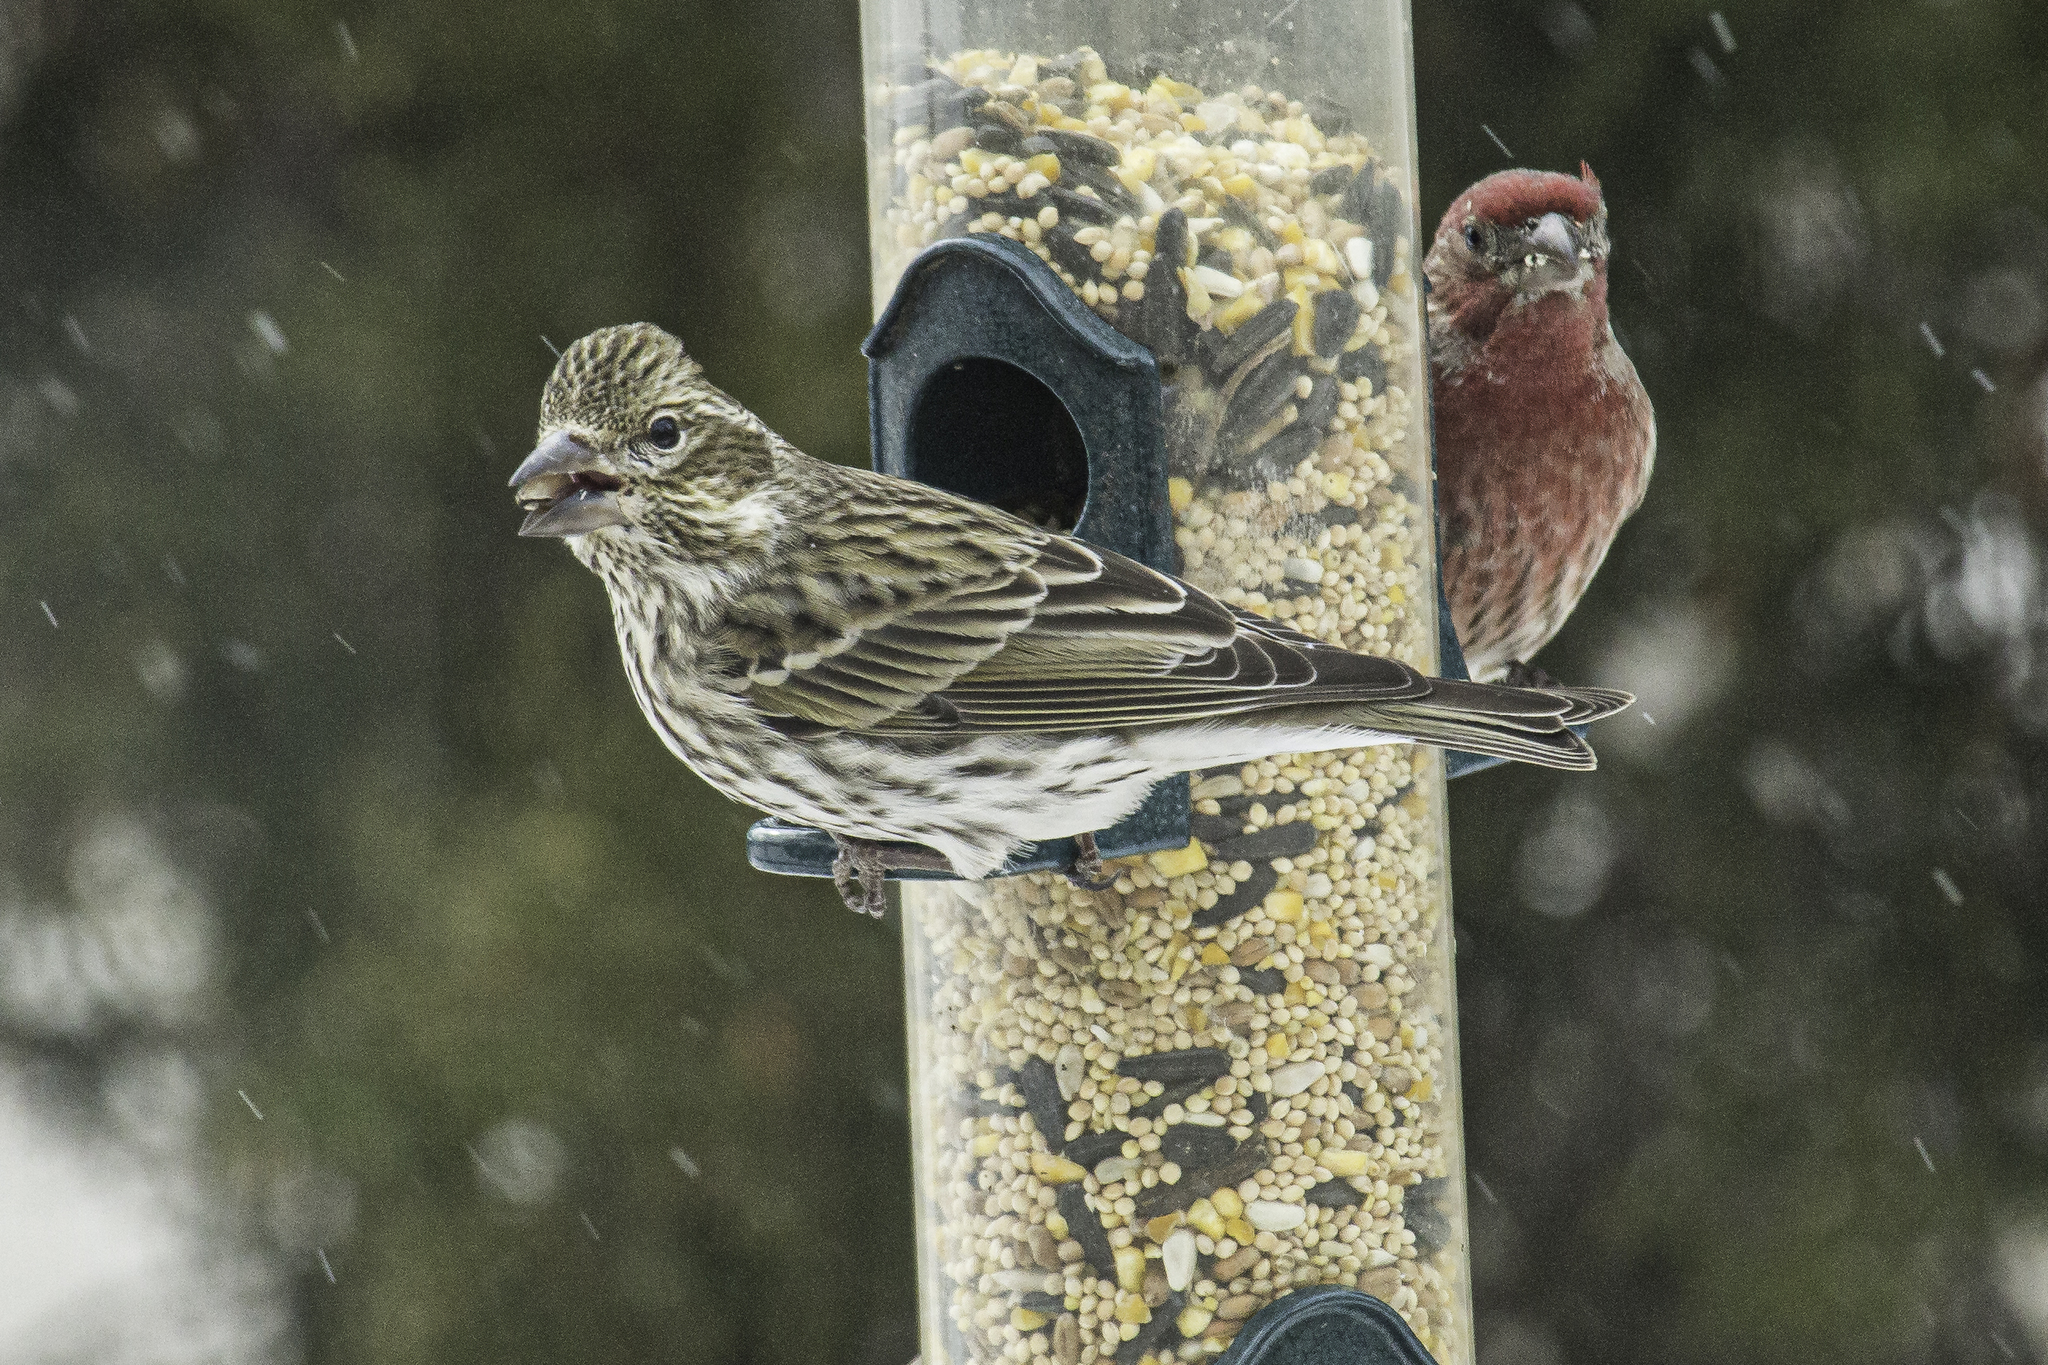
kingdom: Animalia
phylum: Chordata
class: Aves
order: Passeriformes
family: Fringillidae
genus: Haemorhous
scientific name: Haemorhous cassinii
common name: Cassin's finch
